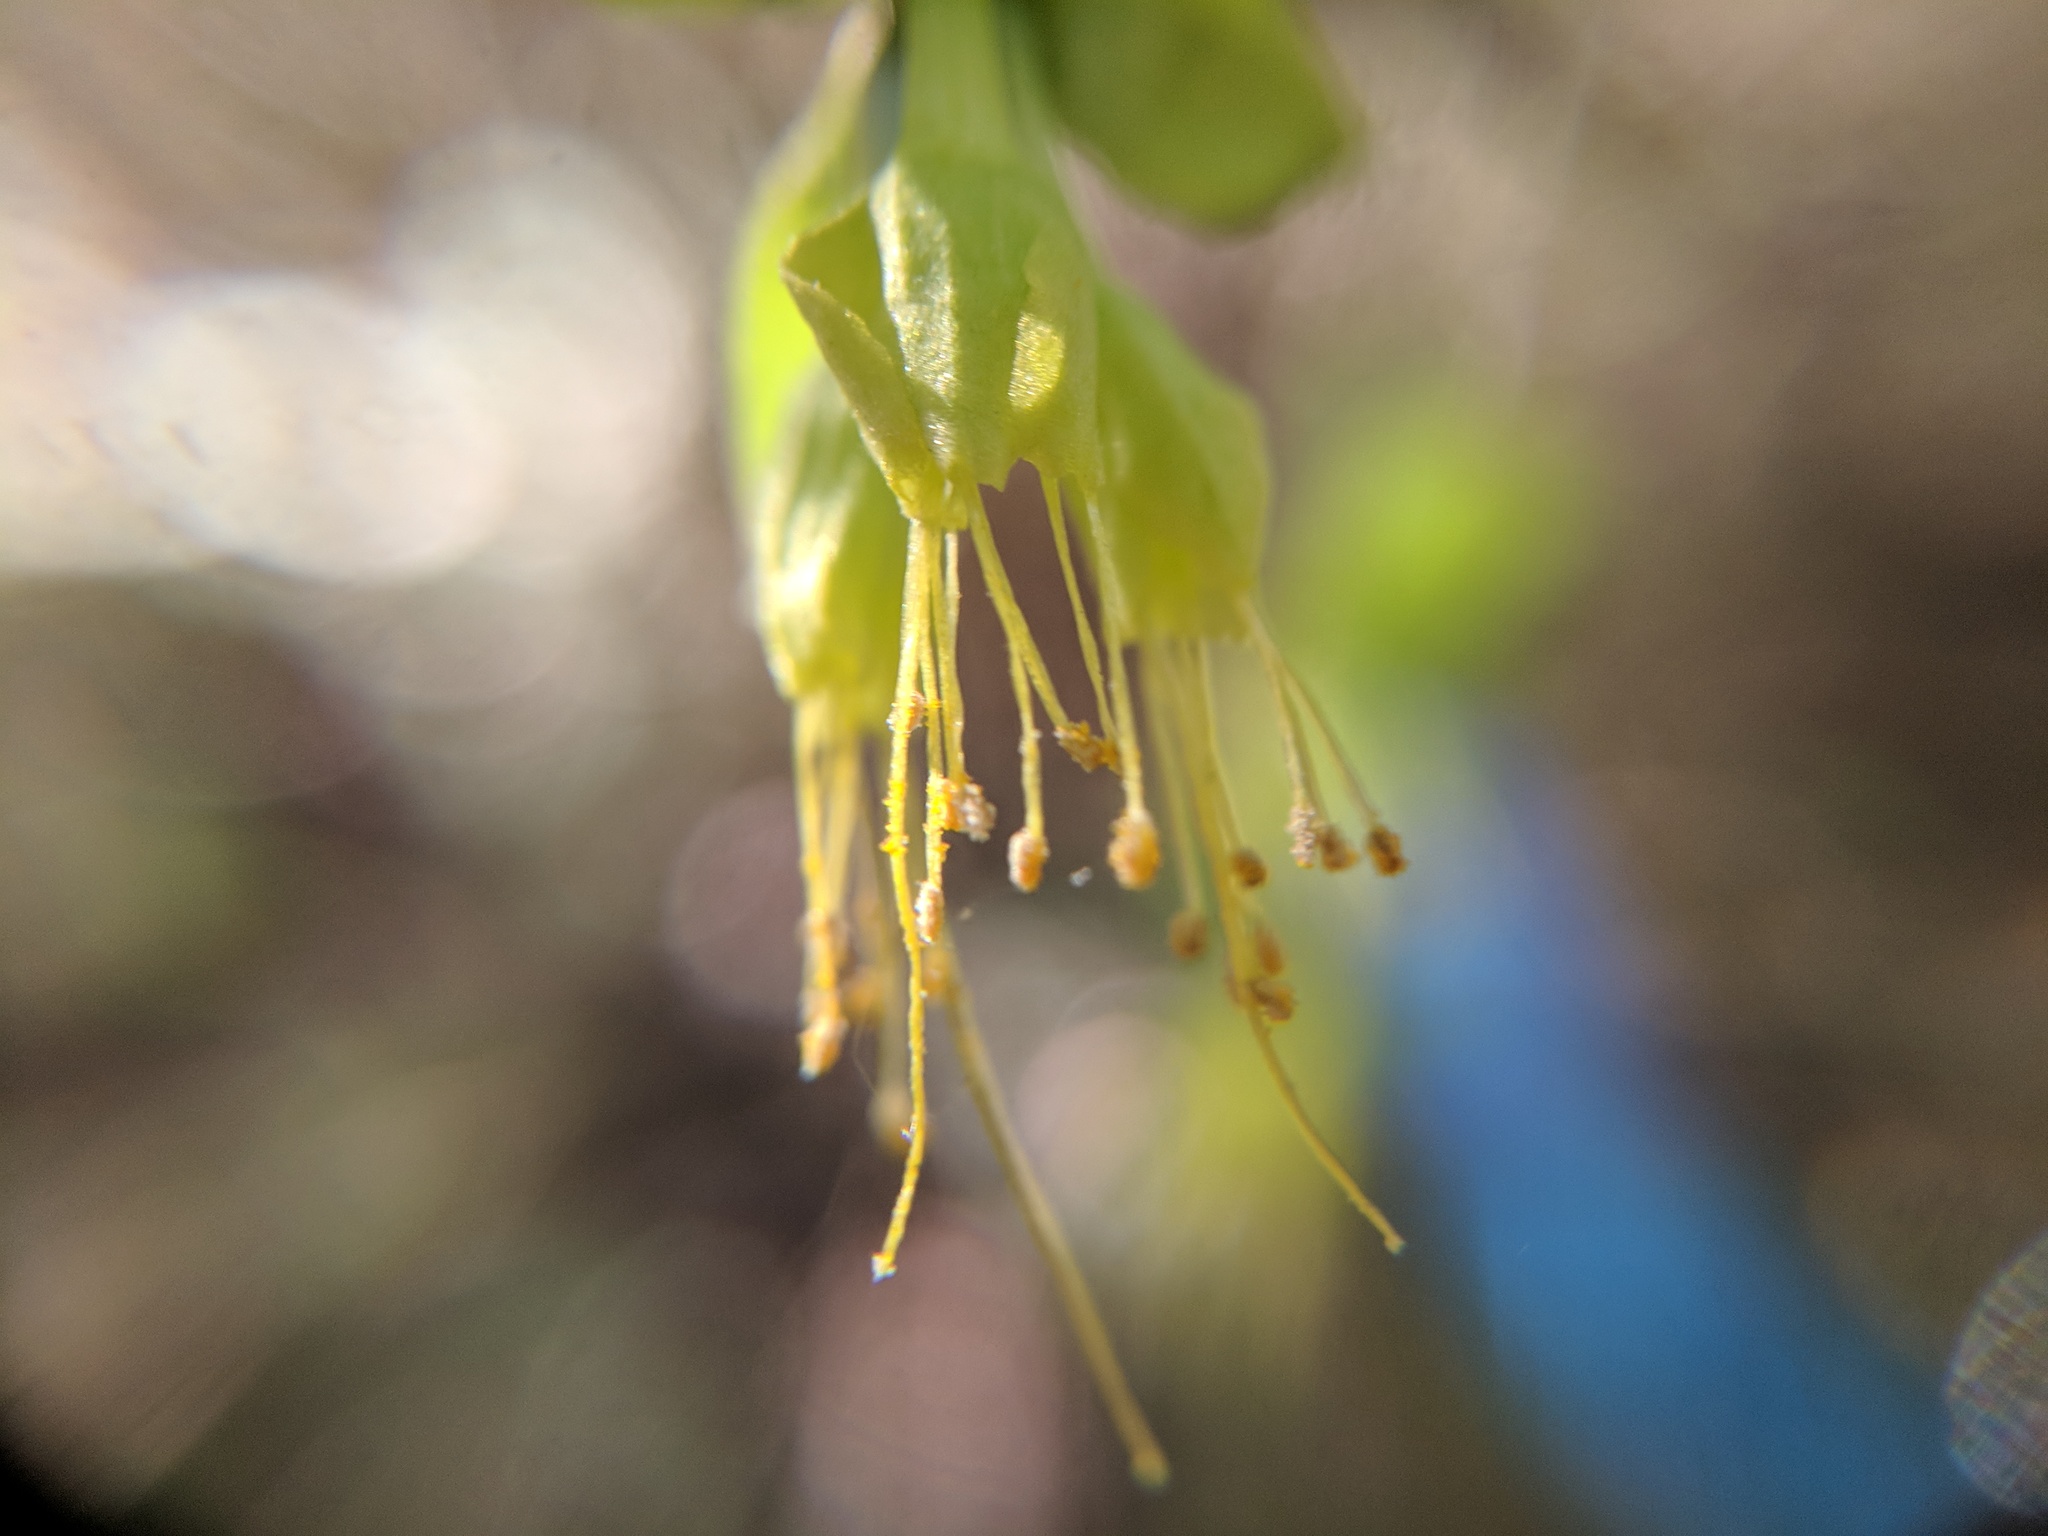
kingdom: Plantae
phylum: Tracheophyta
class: Magnoliopsida
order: Malvales
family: Thymelaeaceae
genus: Dirca
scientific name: Dirca occidentalis
